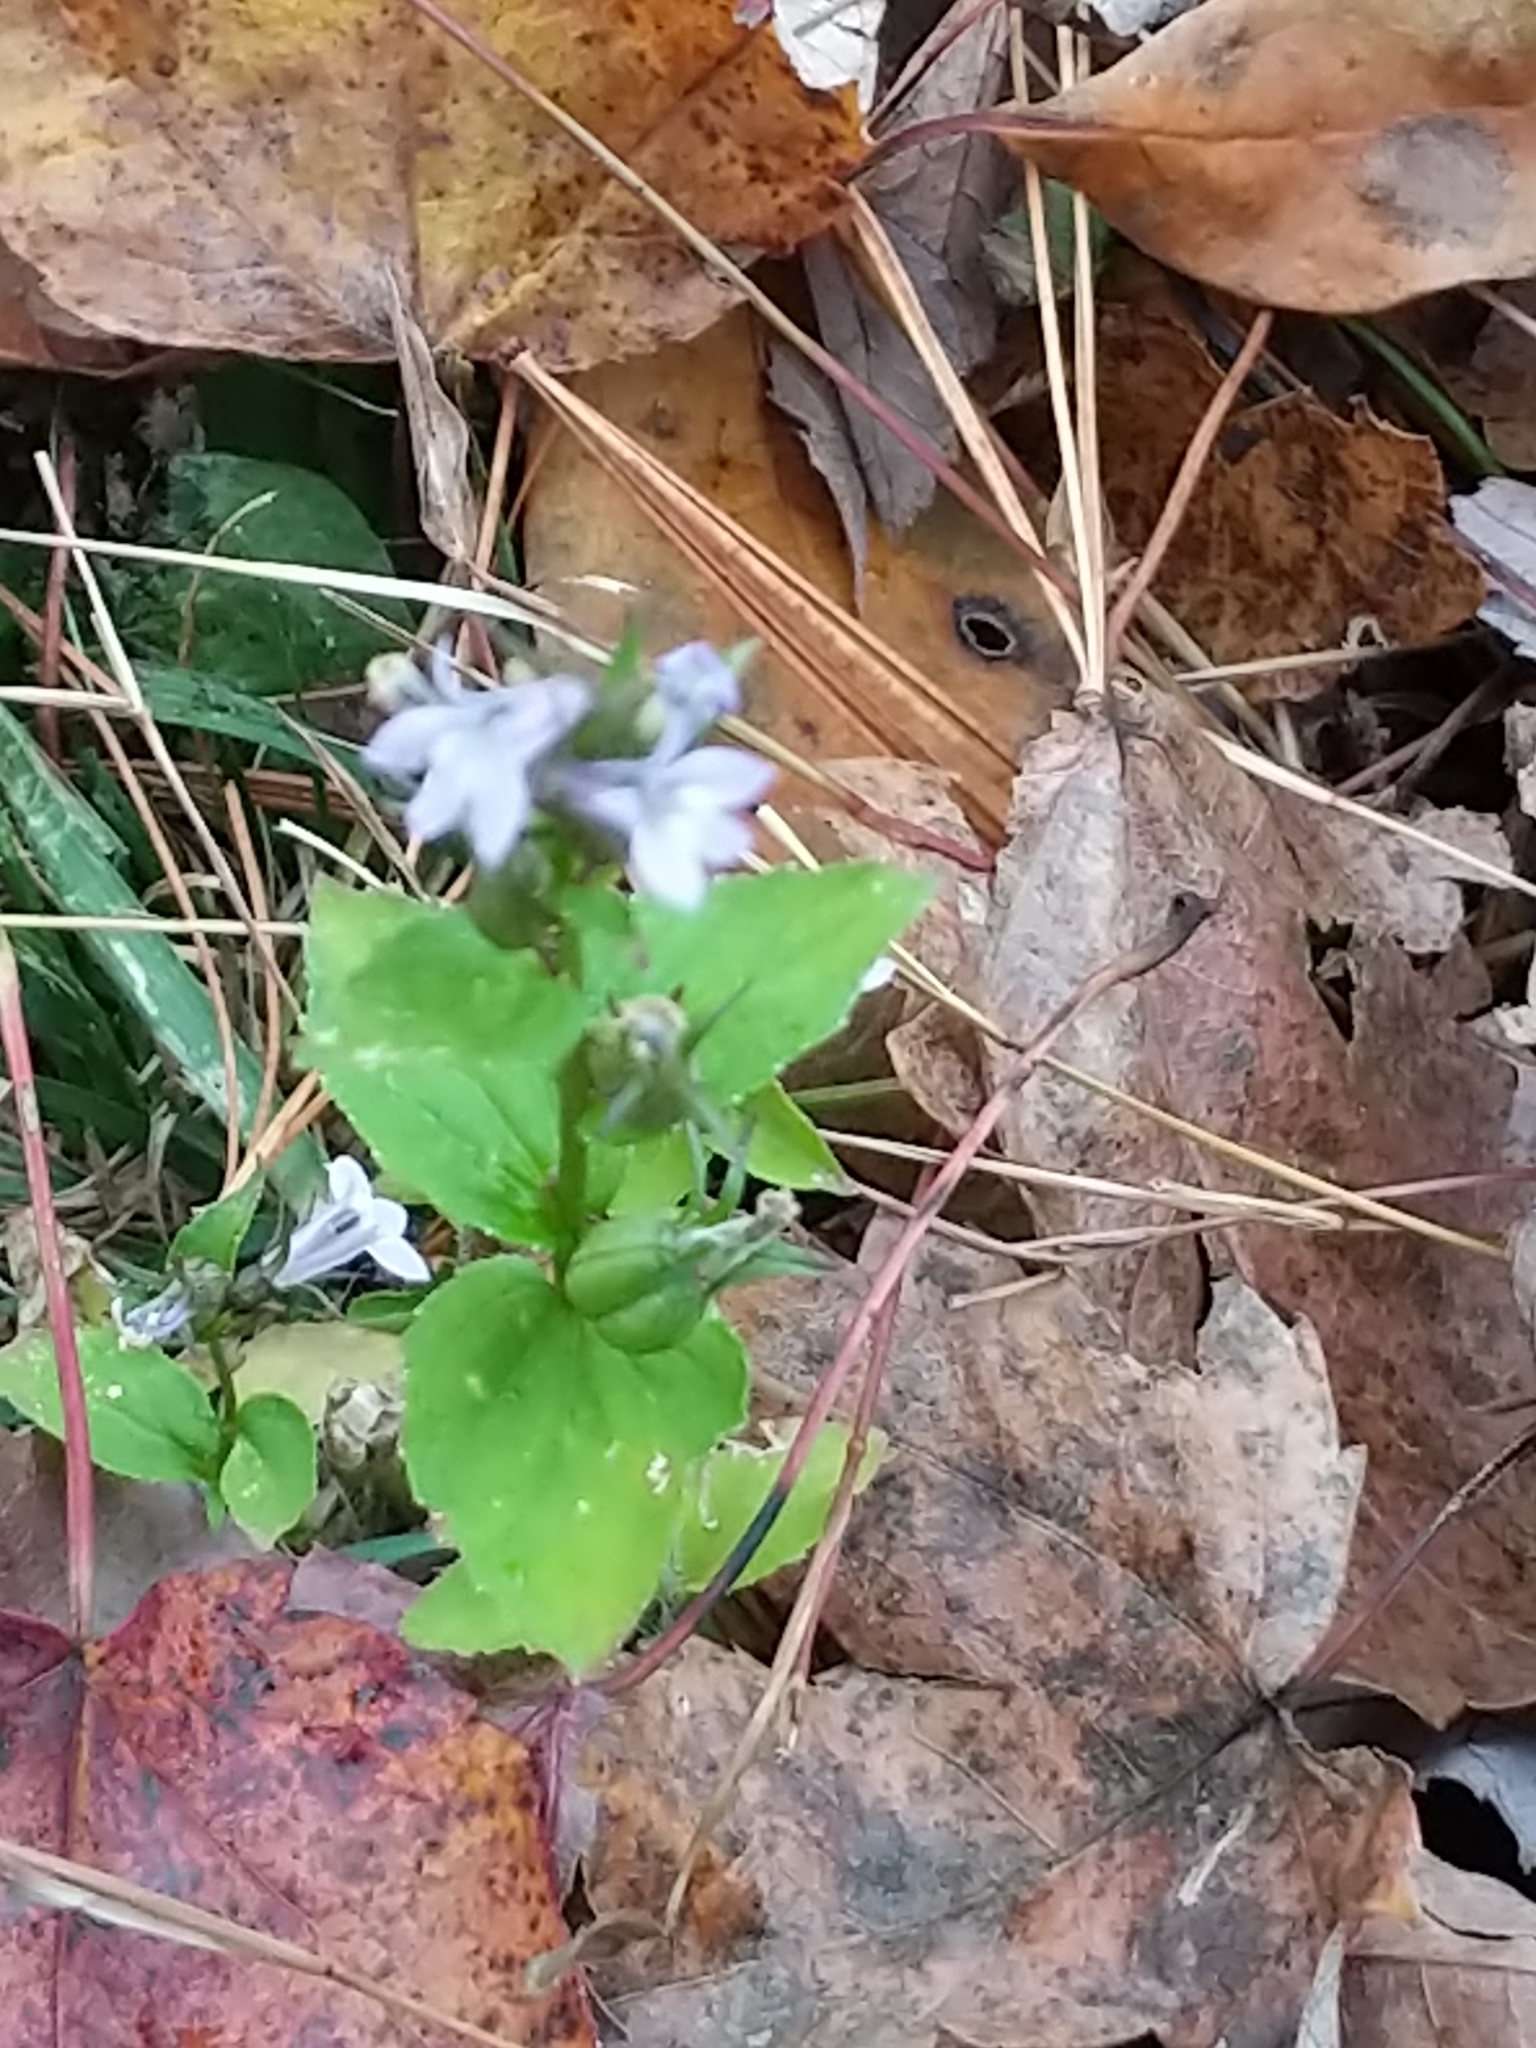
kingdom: Plantae
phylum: Tracheophyta
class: Magnoliopsida
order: Asterales
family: Campanulaceae
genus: Lobelia
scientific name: Lobelia inflata
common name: Indian tobacco
